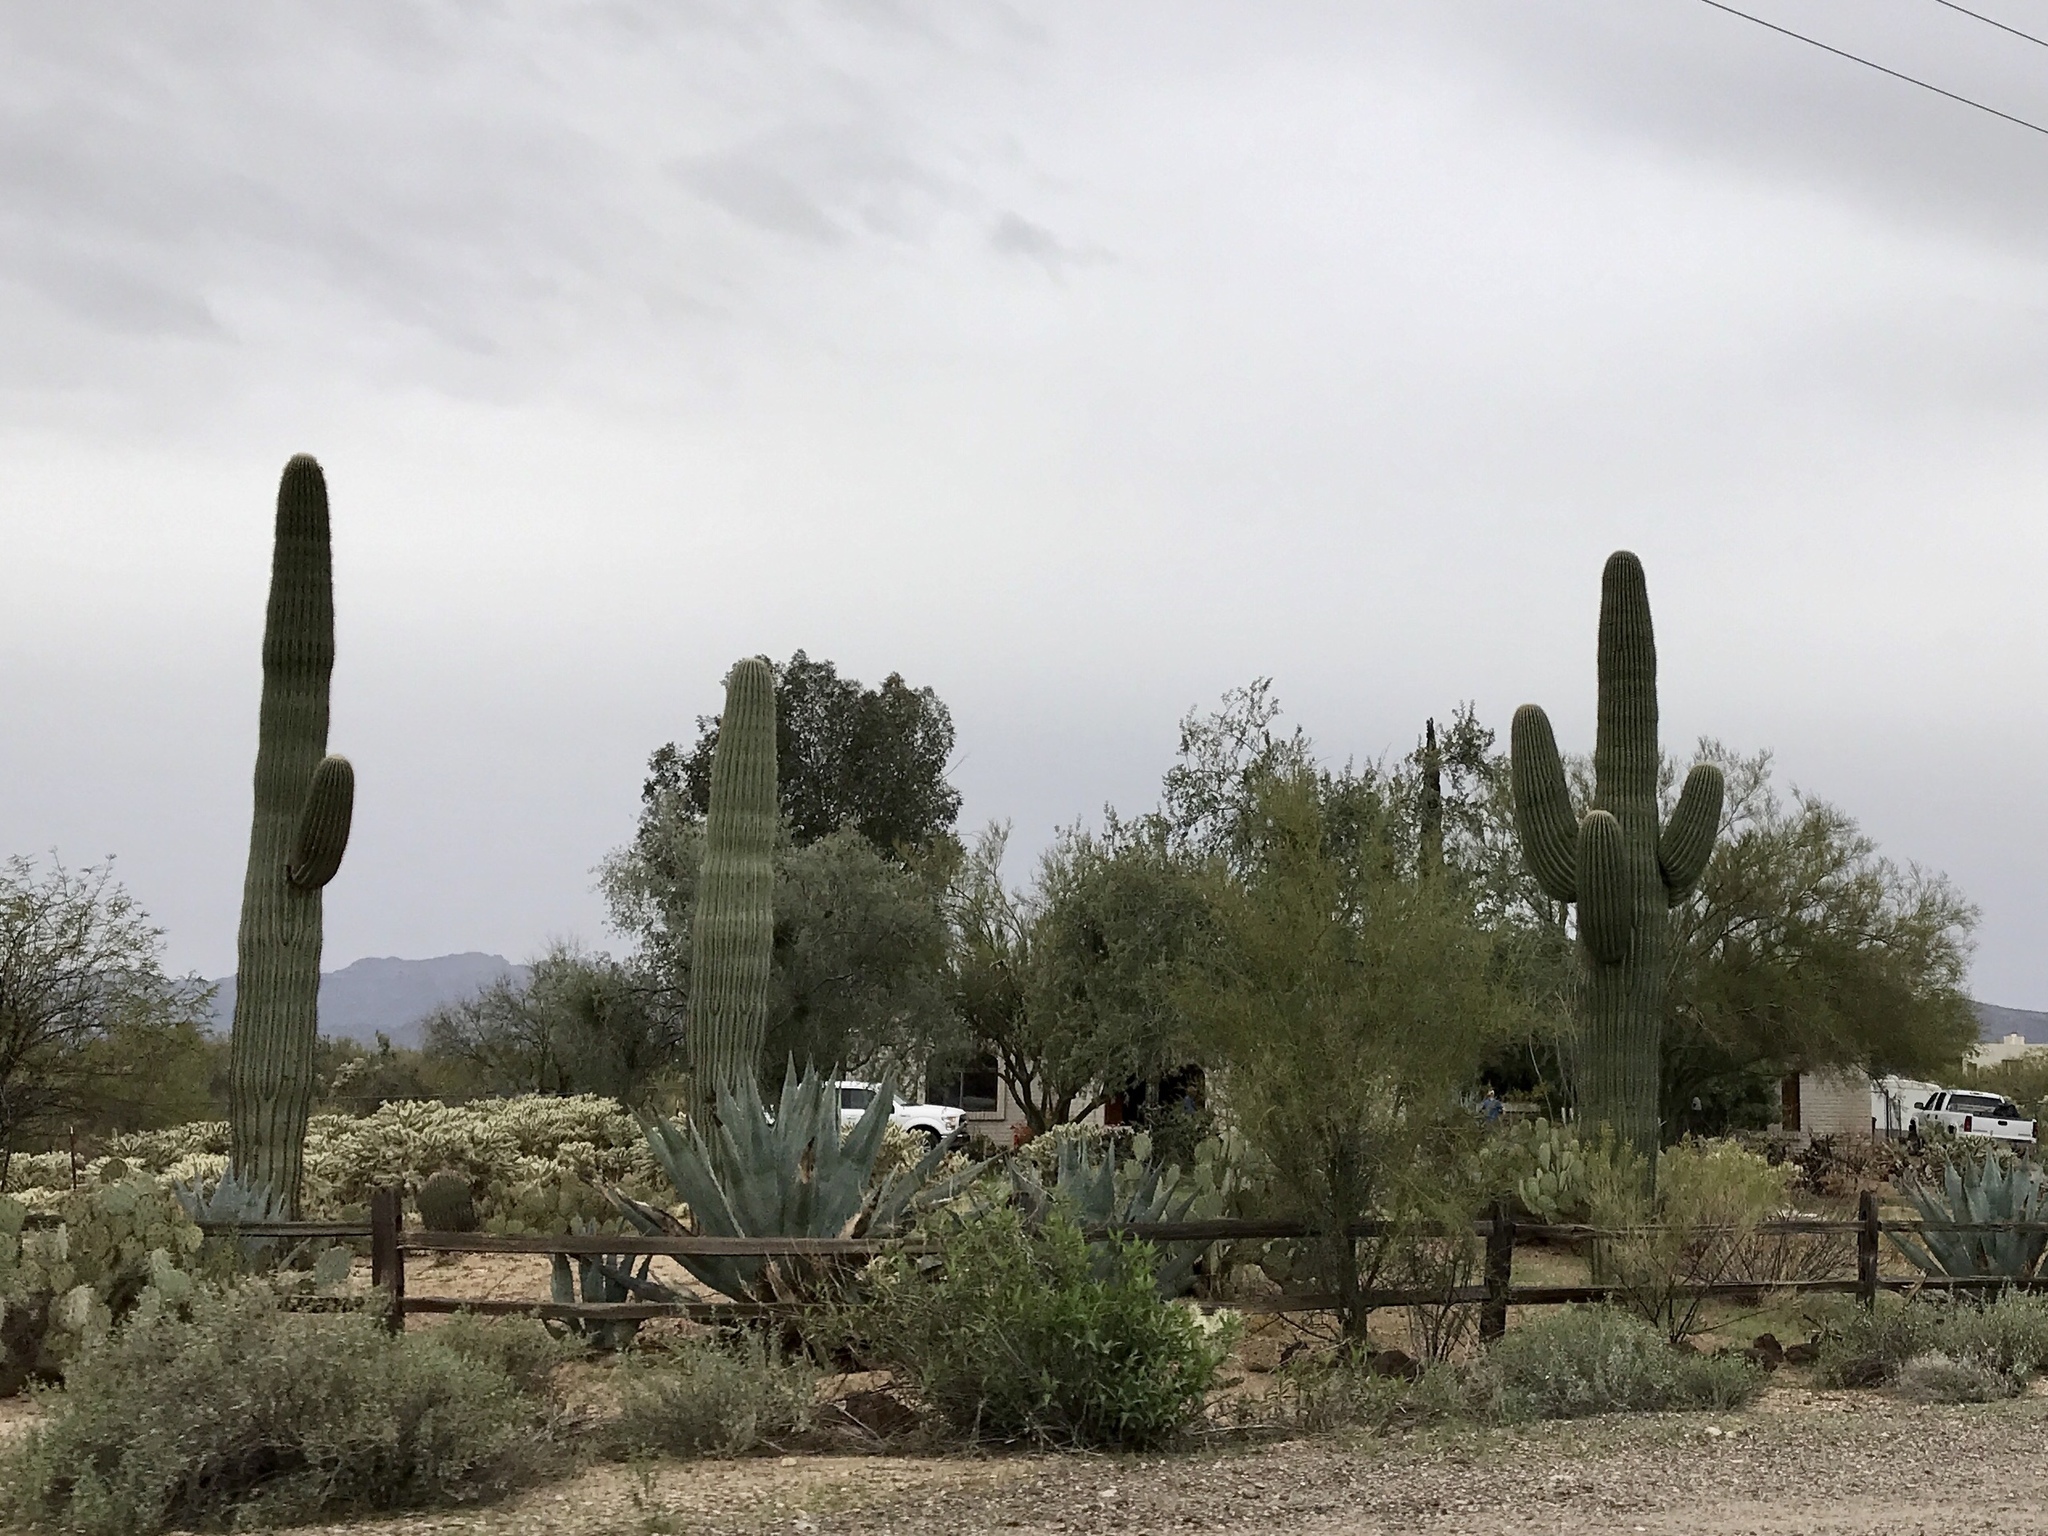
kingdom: Plantae
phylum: Tracheophyta
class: Magnoliopsida
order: Caryophyllales
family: Cactaceae
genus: Carnegiea
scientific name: Carnegiea gigantea
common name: Saguaro
